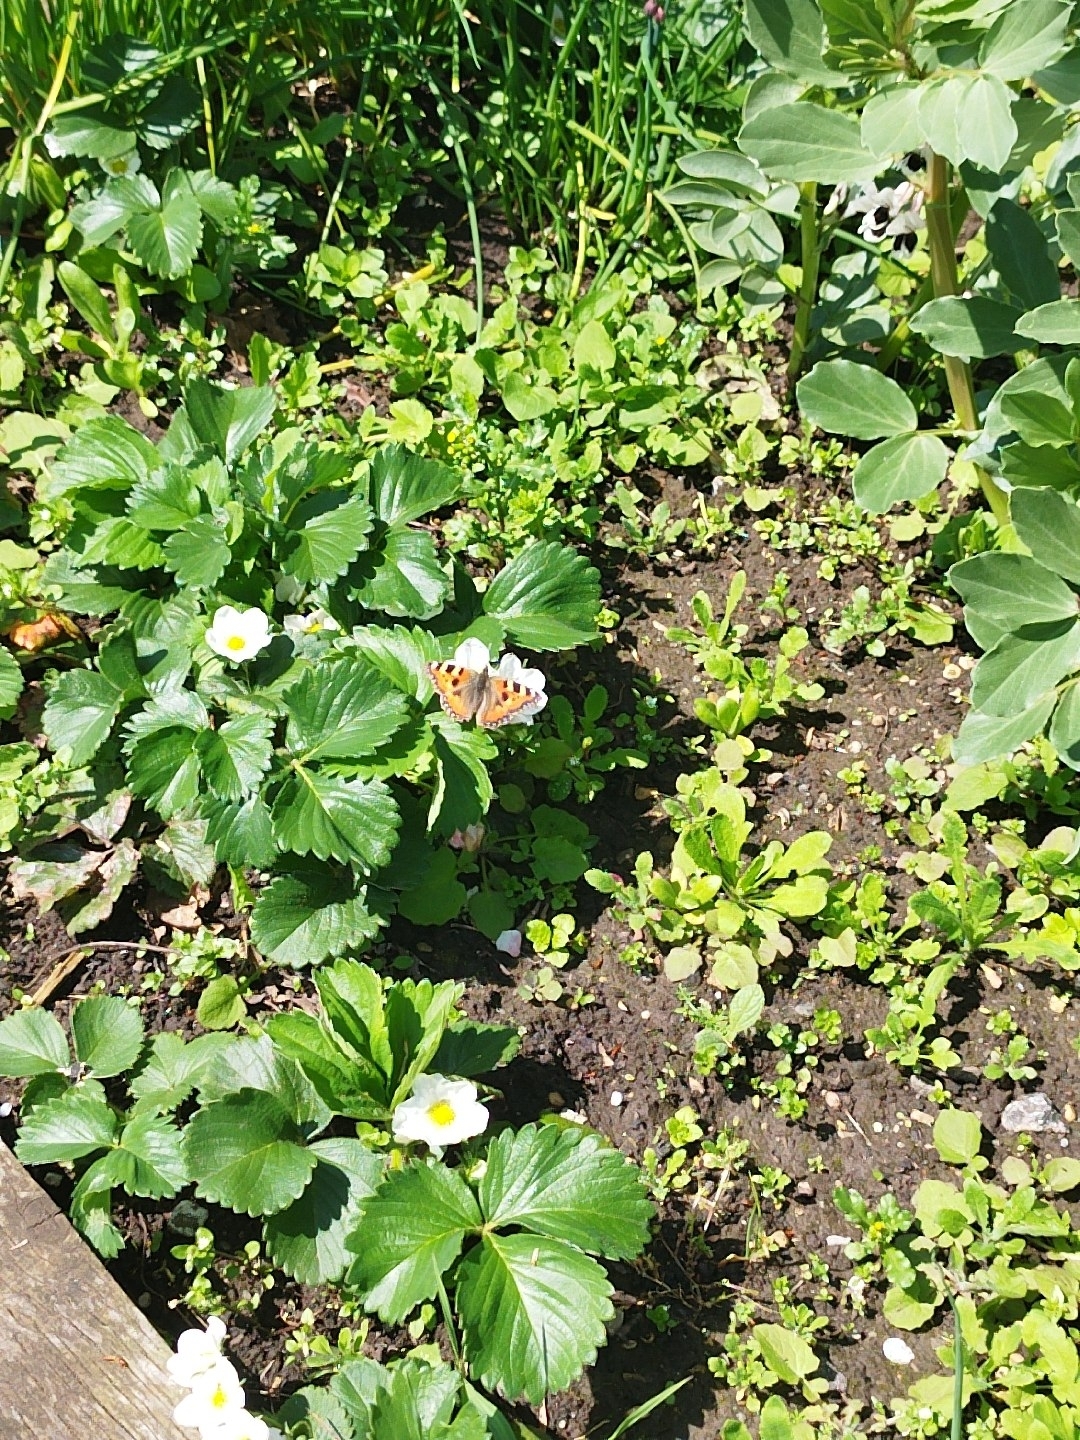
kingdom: Animalia
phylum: Arthropoda
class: Insecta
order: Lepidoptera
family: Nymphalidae
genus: Aglais
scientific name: Aglais urticae
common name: Small tortoiseshell
